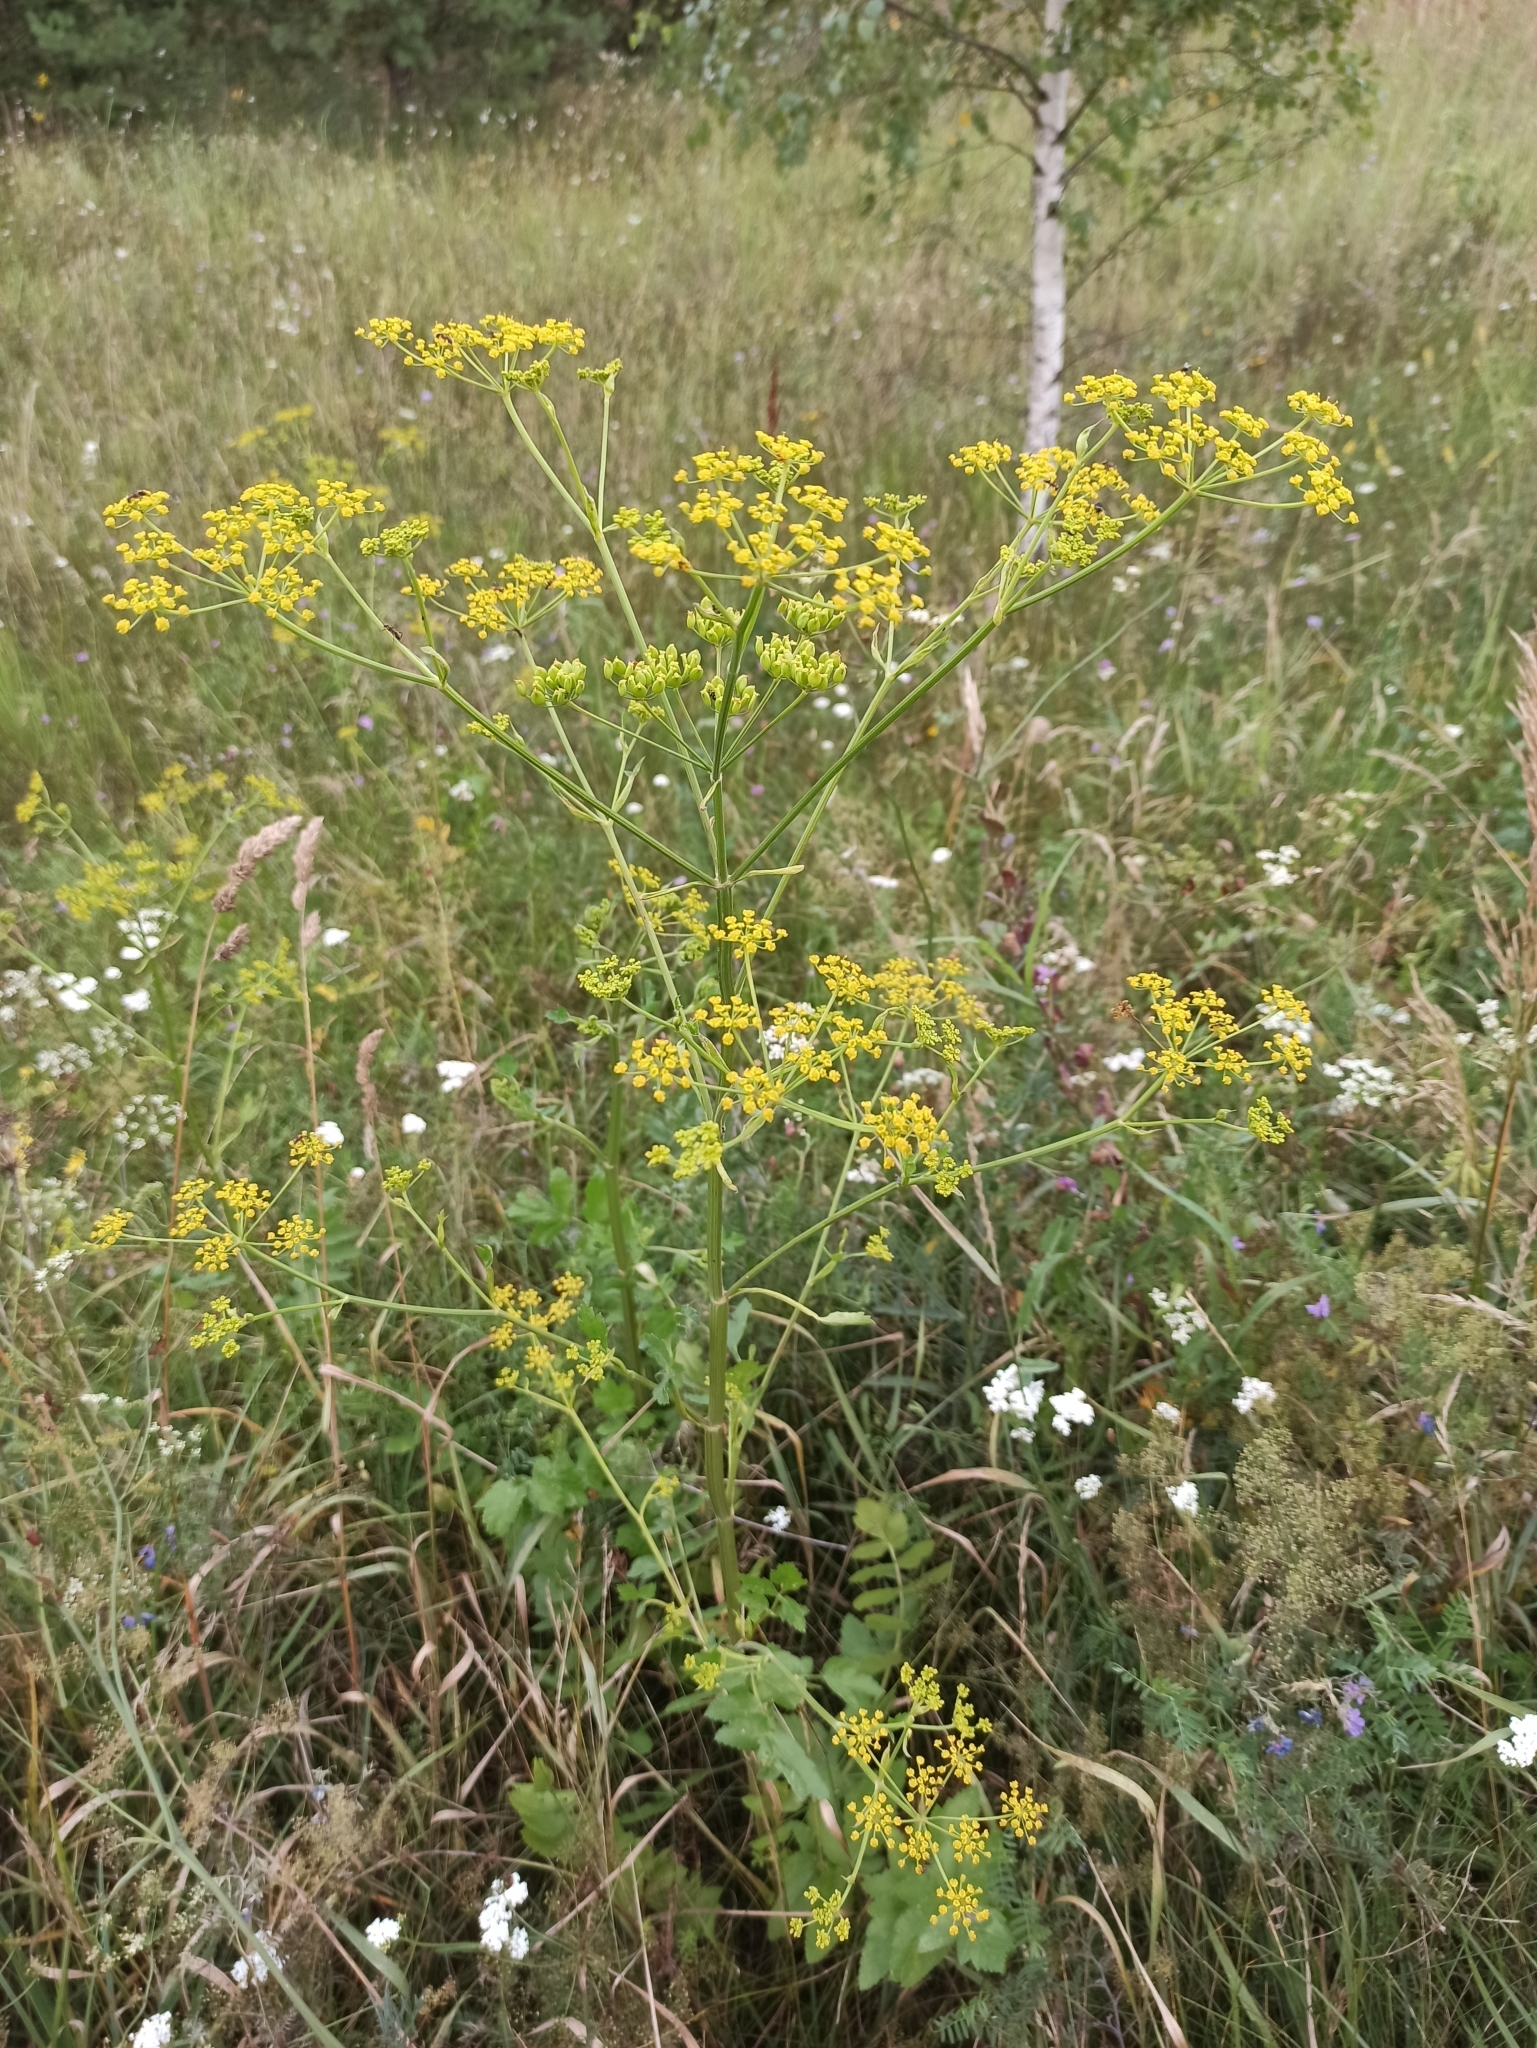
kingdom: Plantae
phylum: Tracheophyta
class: Magnoliopsida
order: Apiales
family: Apiaceae
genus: Pastinaca
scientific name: Pastinaca sativa
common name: Wild parsnip
